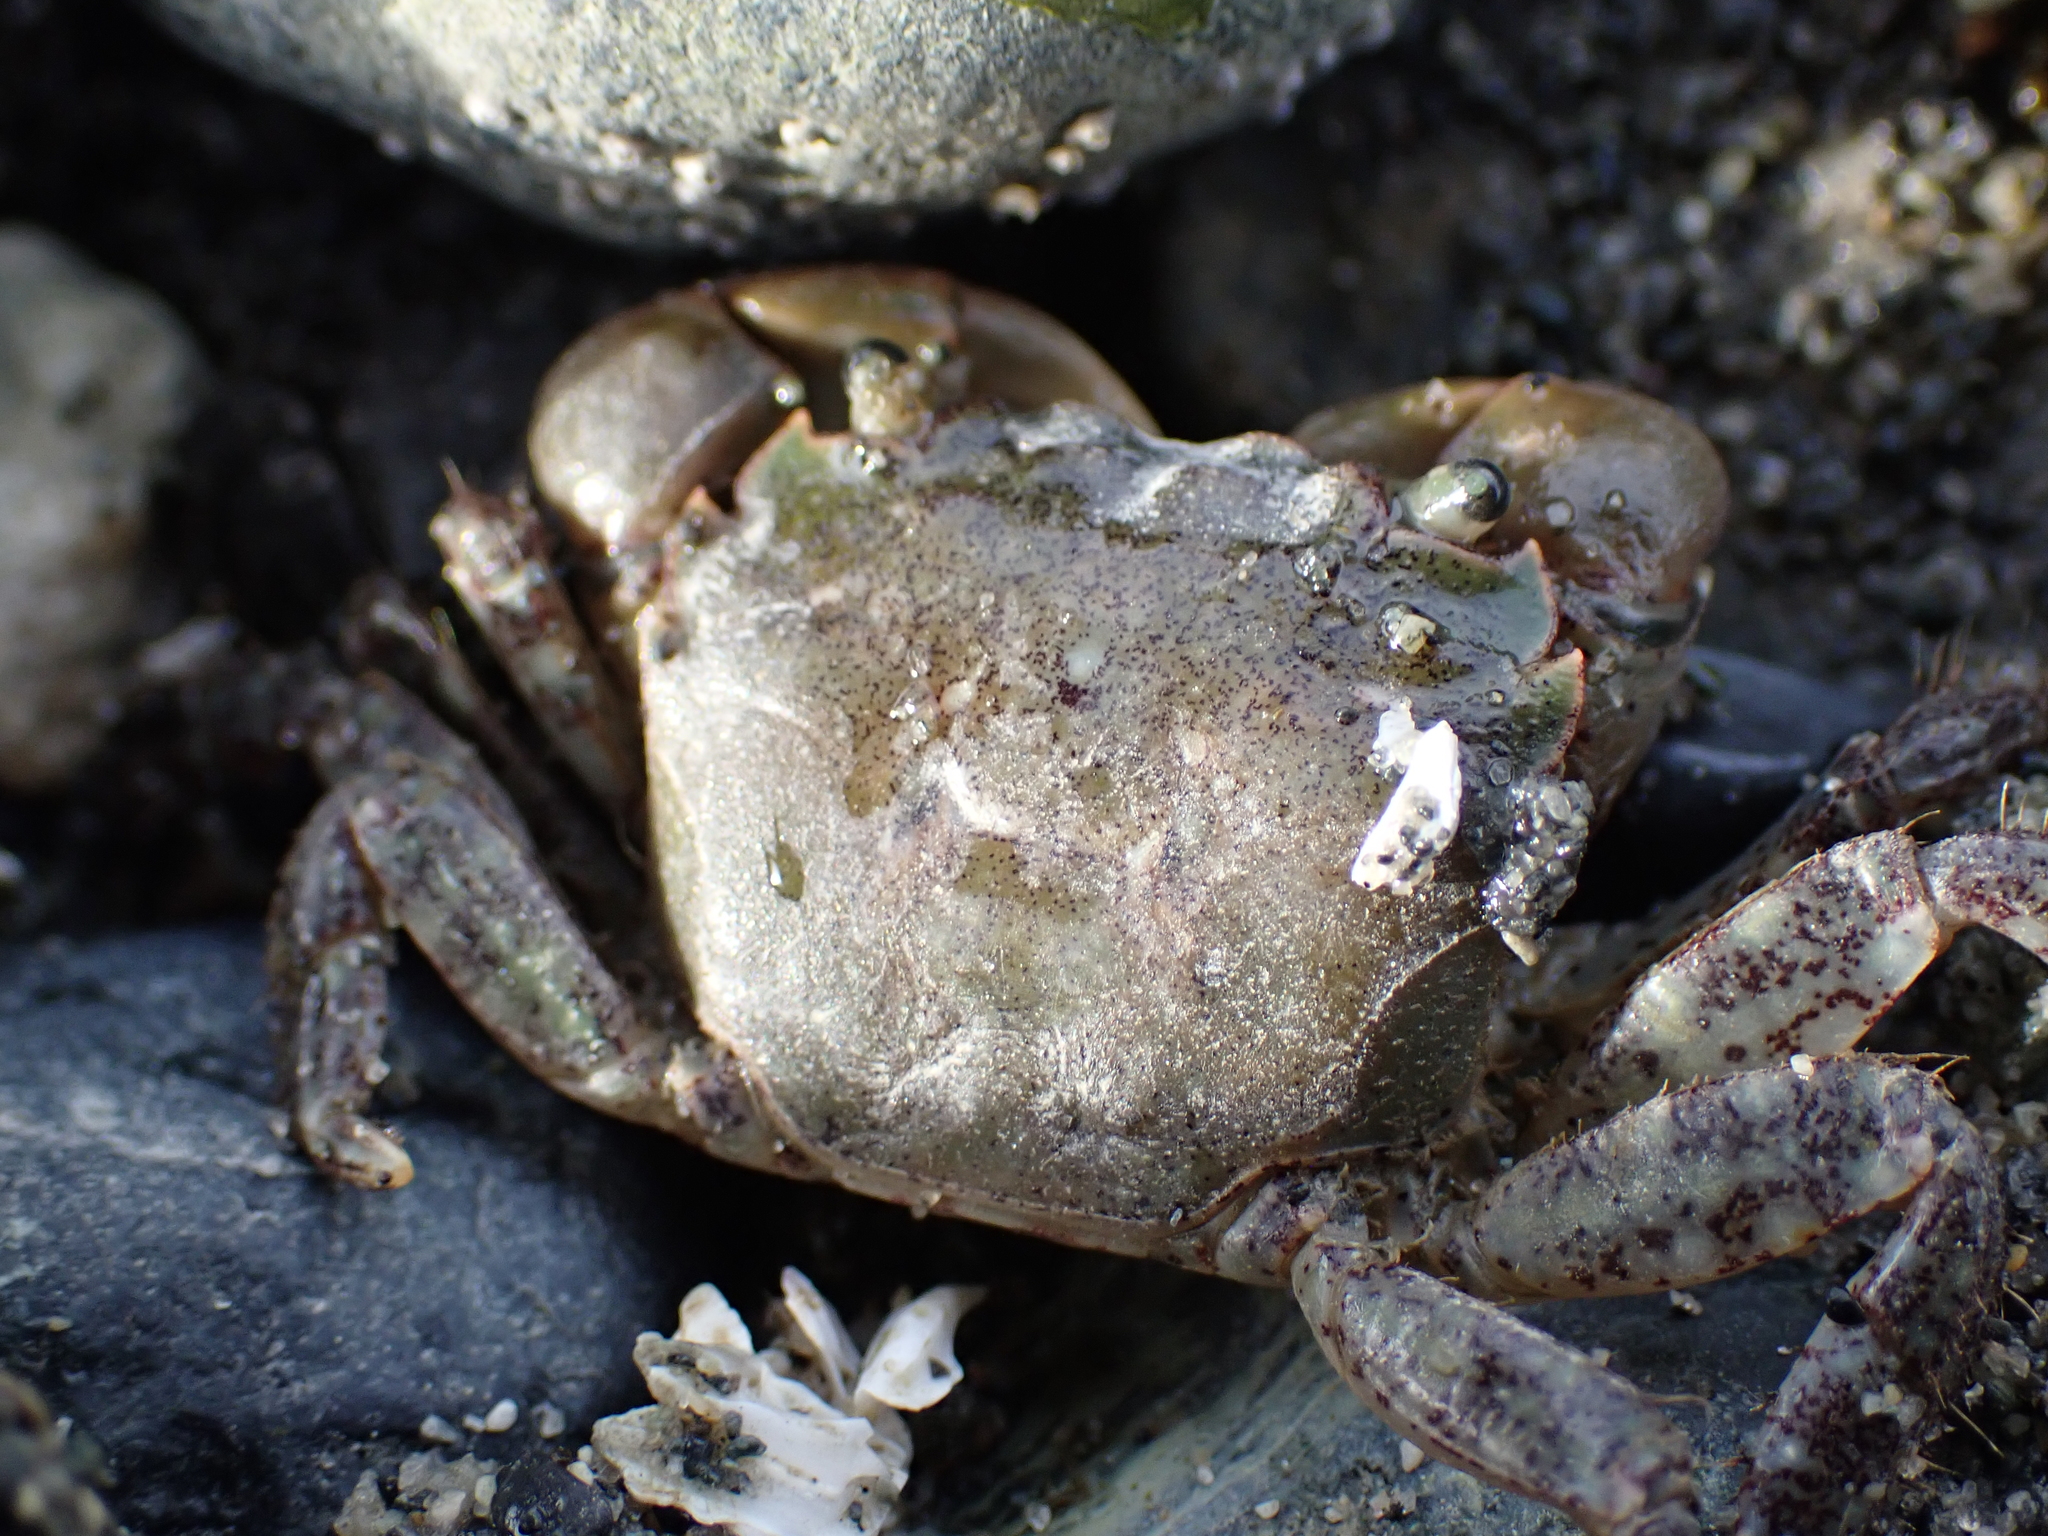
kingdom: Animalia
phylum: Arthropoda
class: Malacostraca
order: Decapoda
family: Varunidae
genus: Hemigrapsus
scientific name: Hemigrapsus oregonensis
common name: Yellow shore crab
